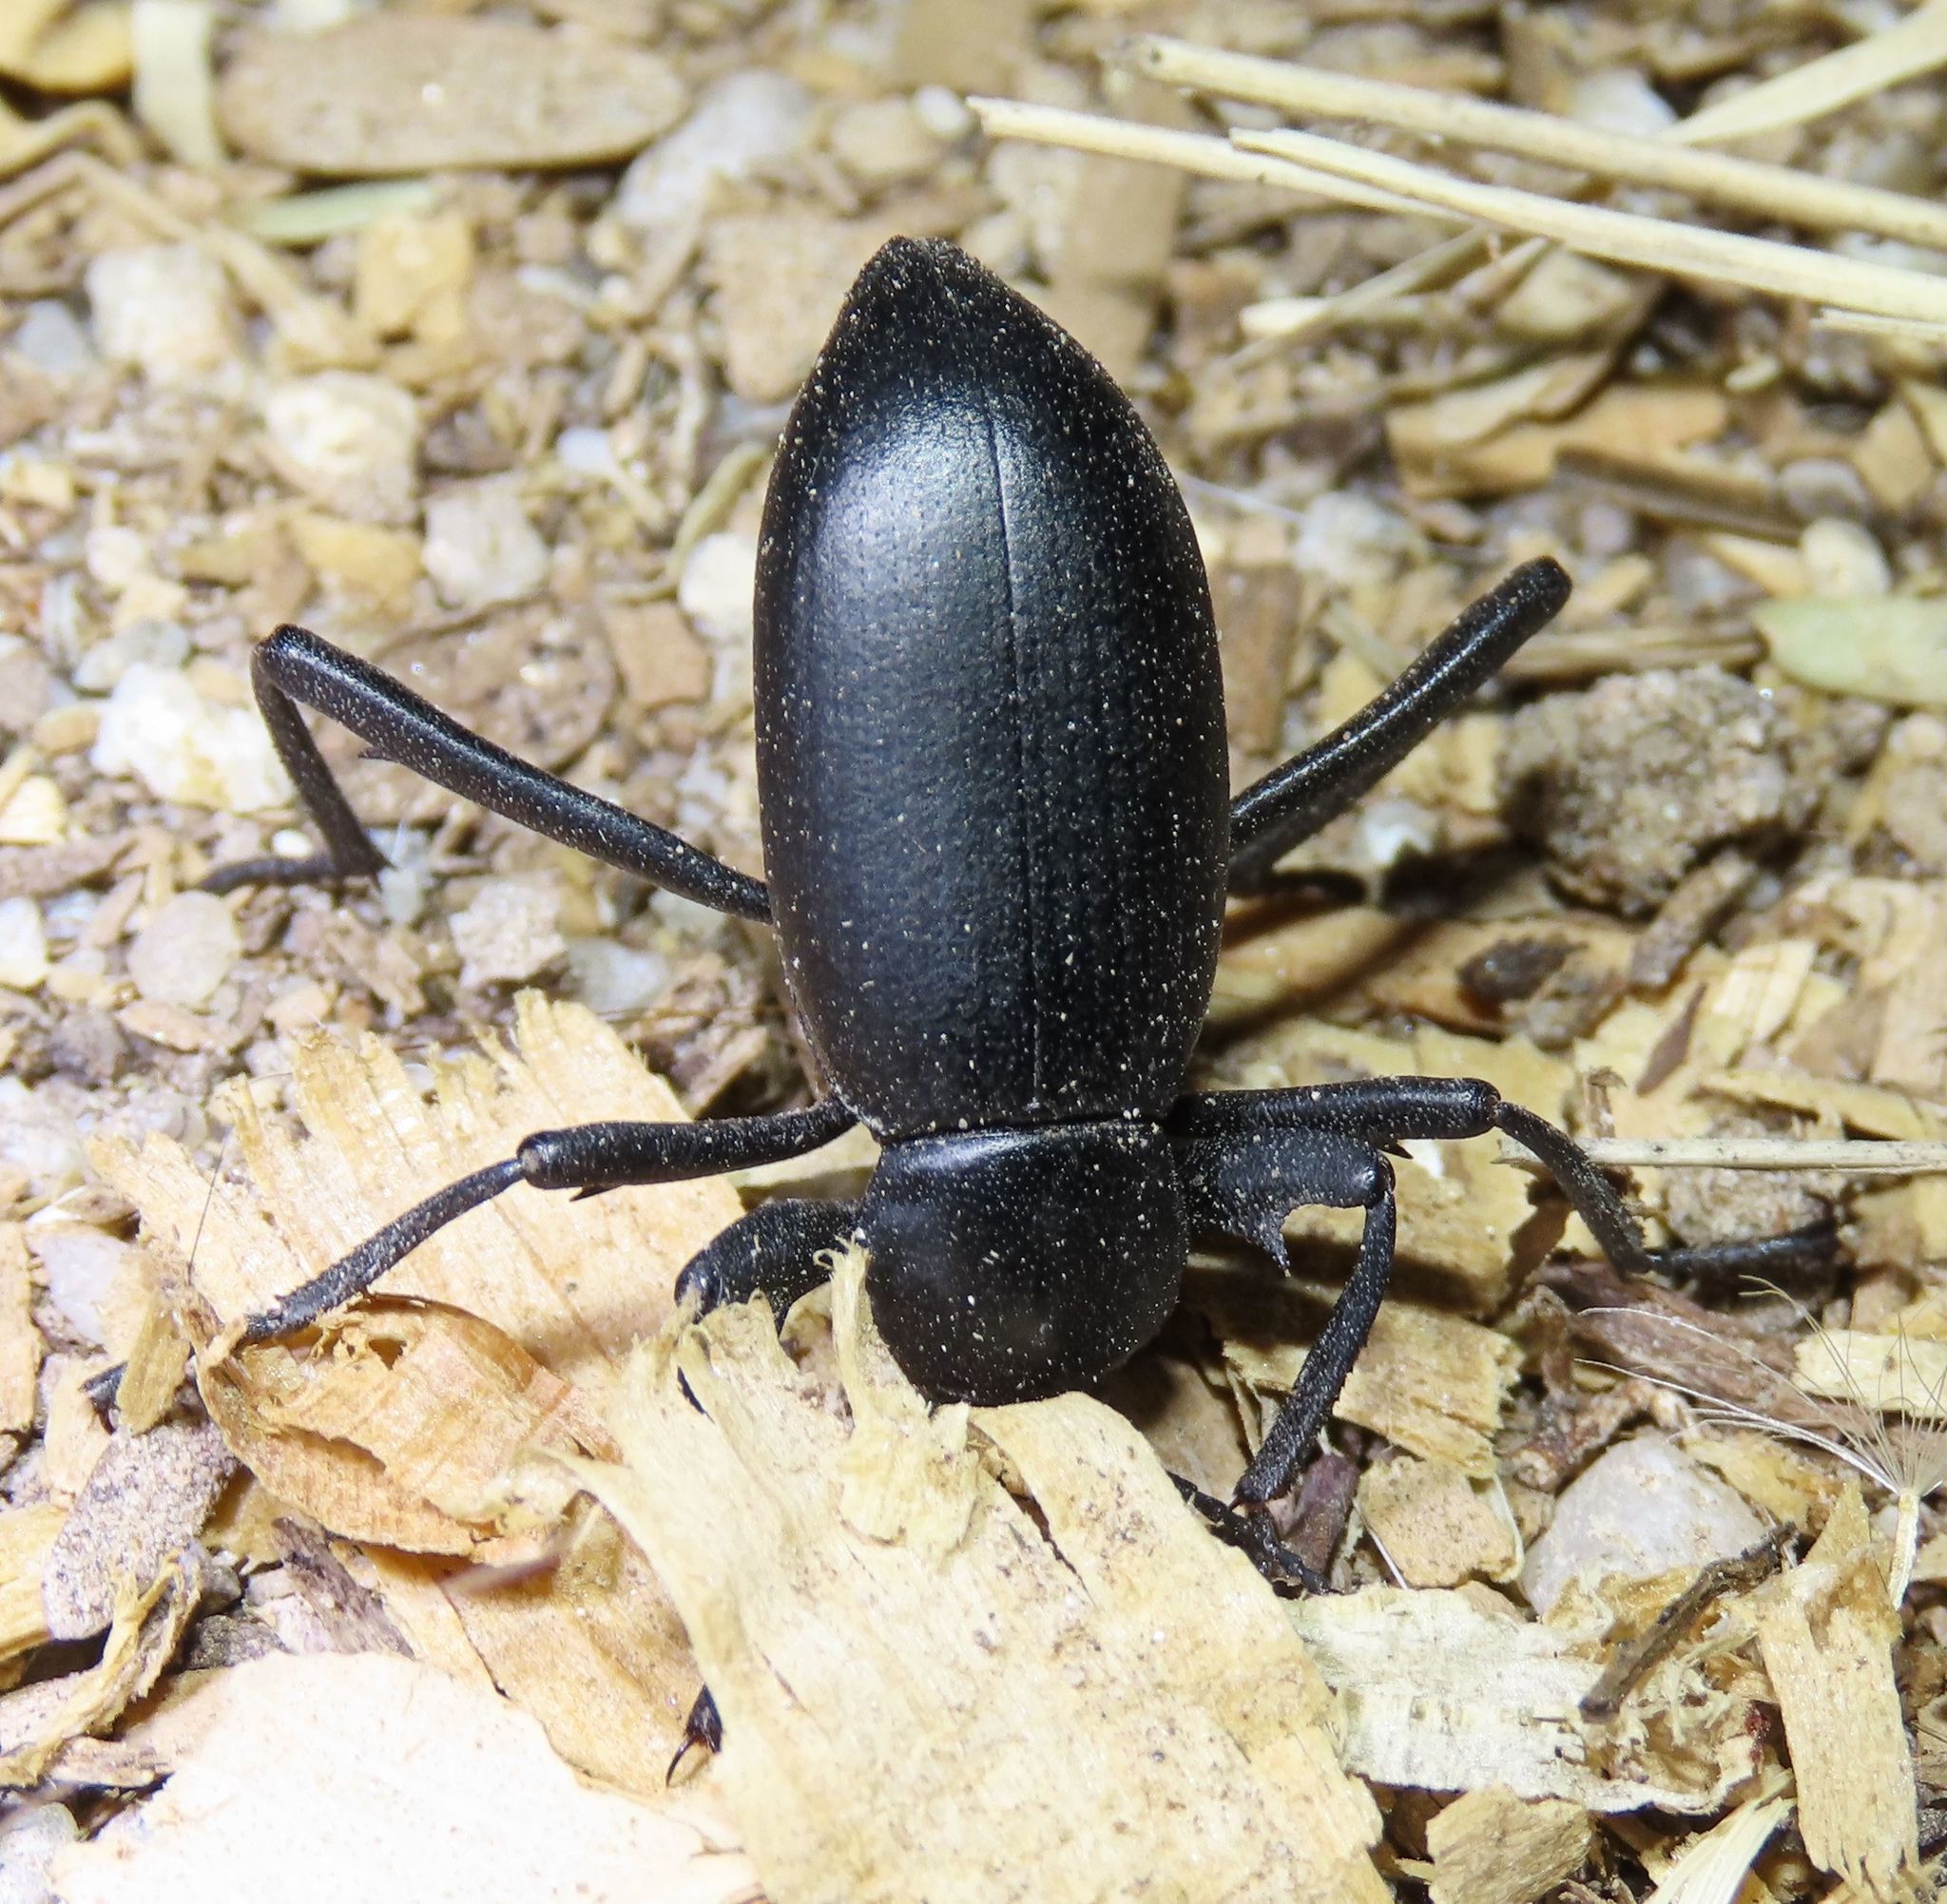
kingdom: Animalia
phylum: Arthropoda
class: Insecta
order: Coleoptera
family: Tenebrionidae
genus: Eleodes
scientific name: Eleodes armata
